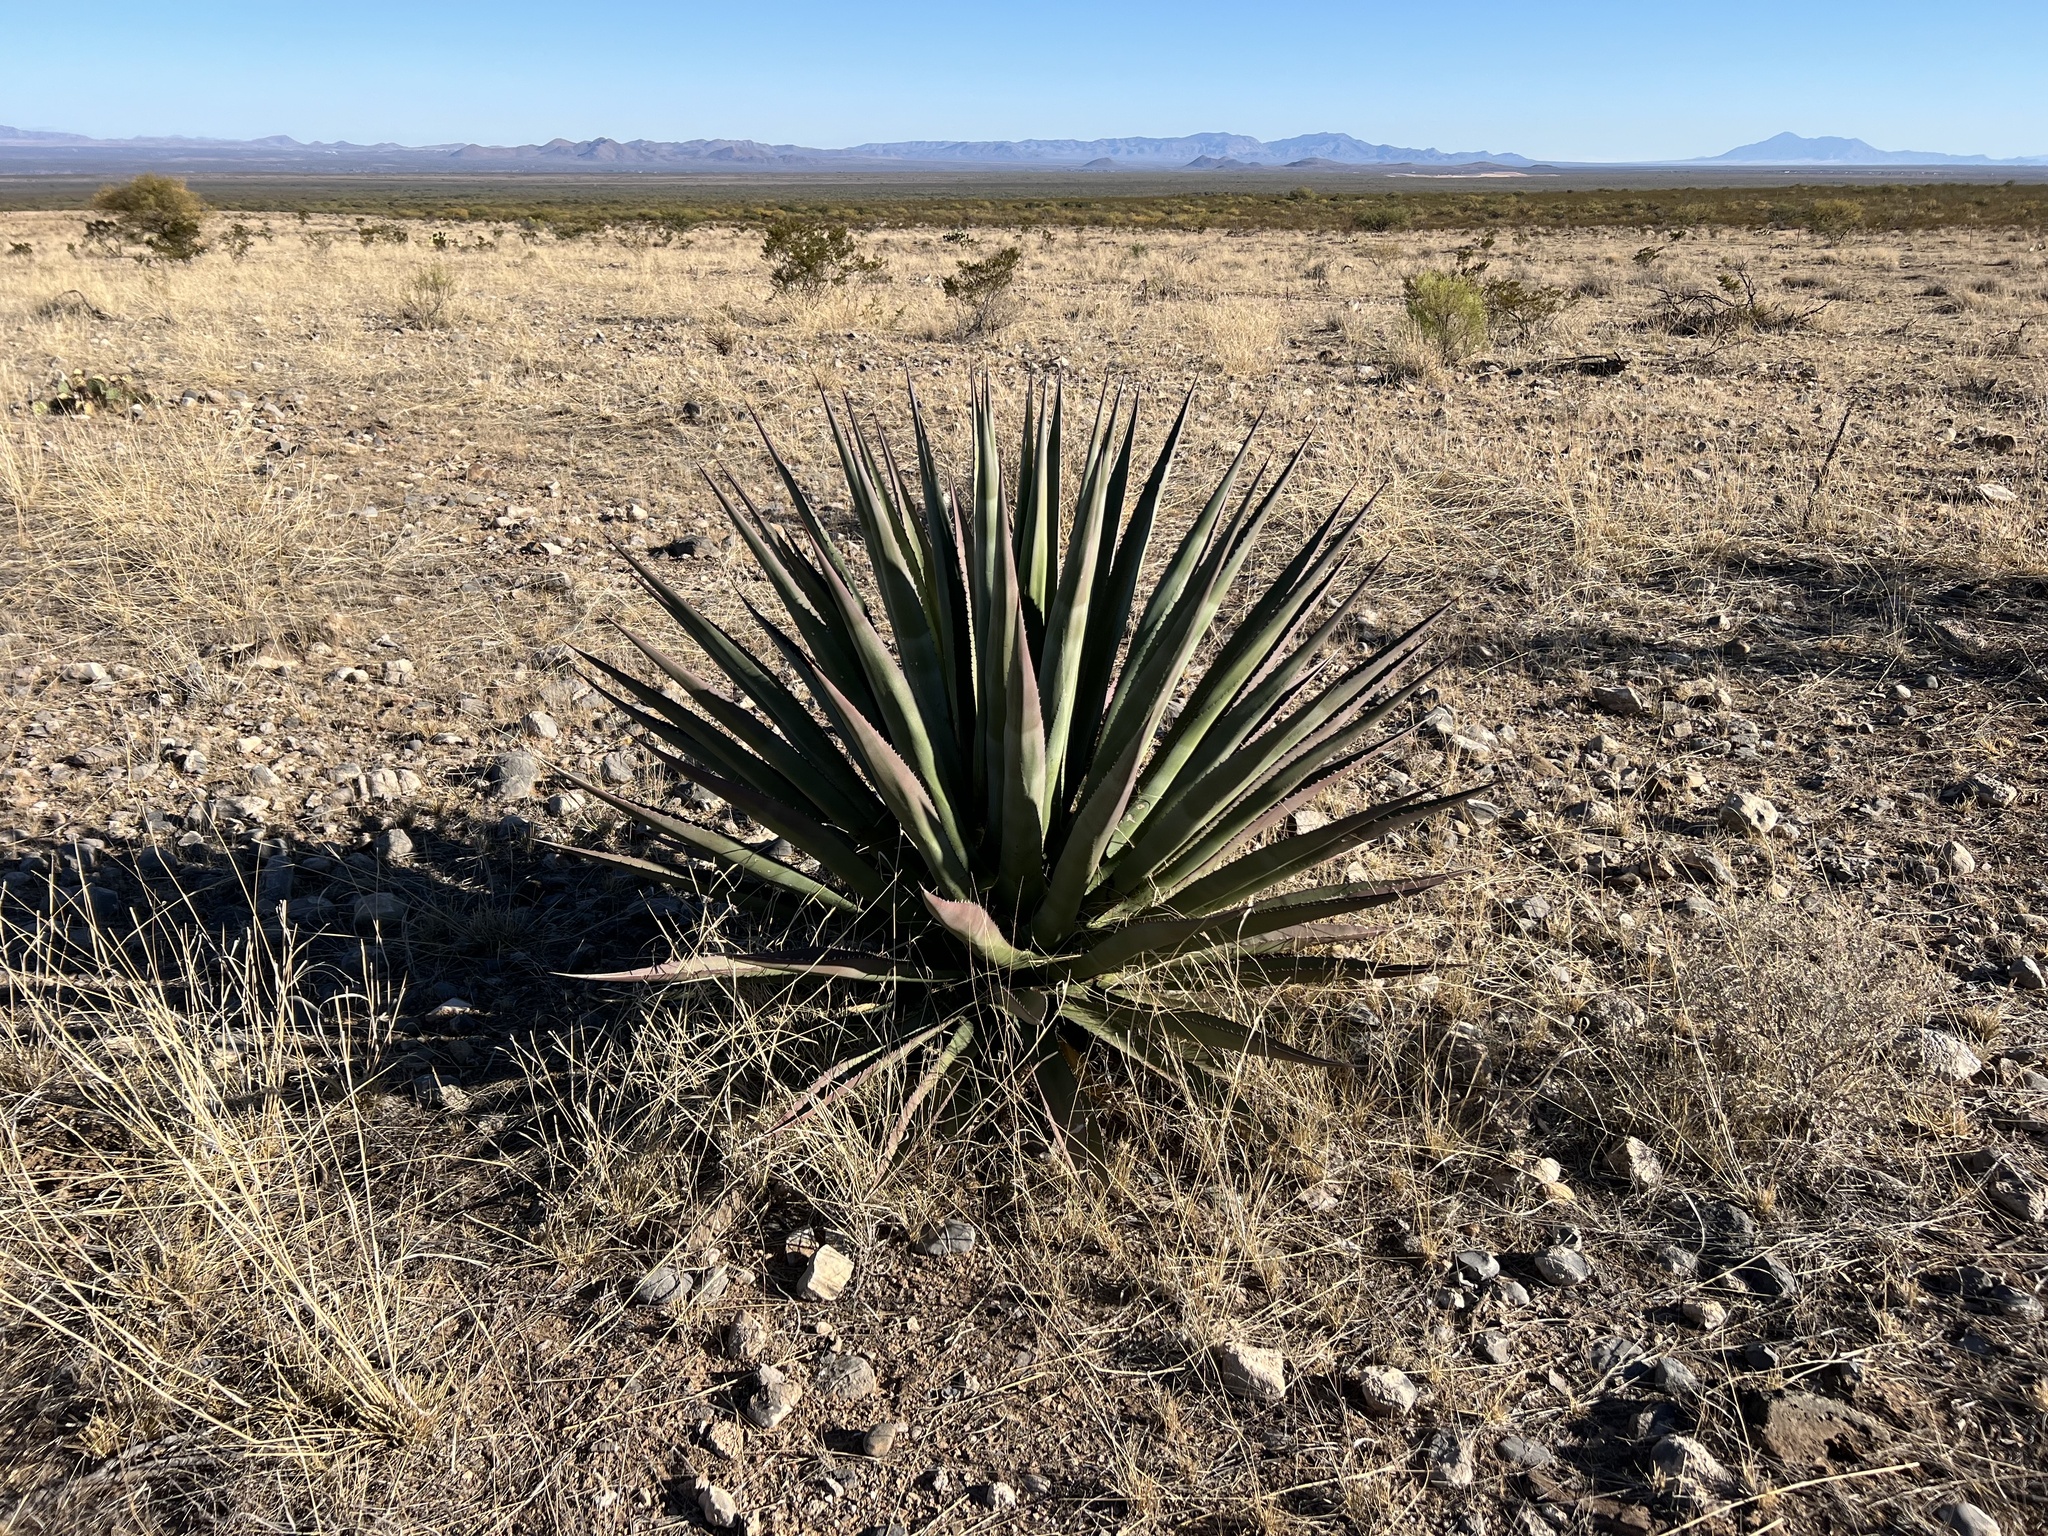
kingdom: Plantae
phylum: Tracheophyta
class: Liliopsida
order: Asparagales
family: Asparagaceae
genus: Agave
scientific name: Agave palmeri
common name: Palmer agave
